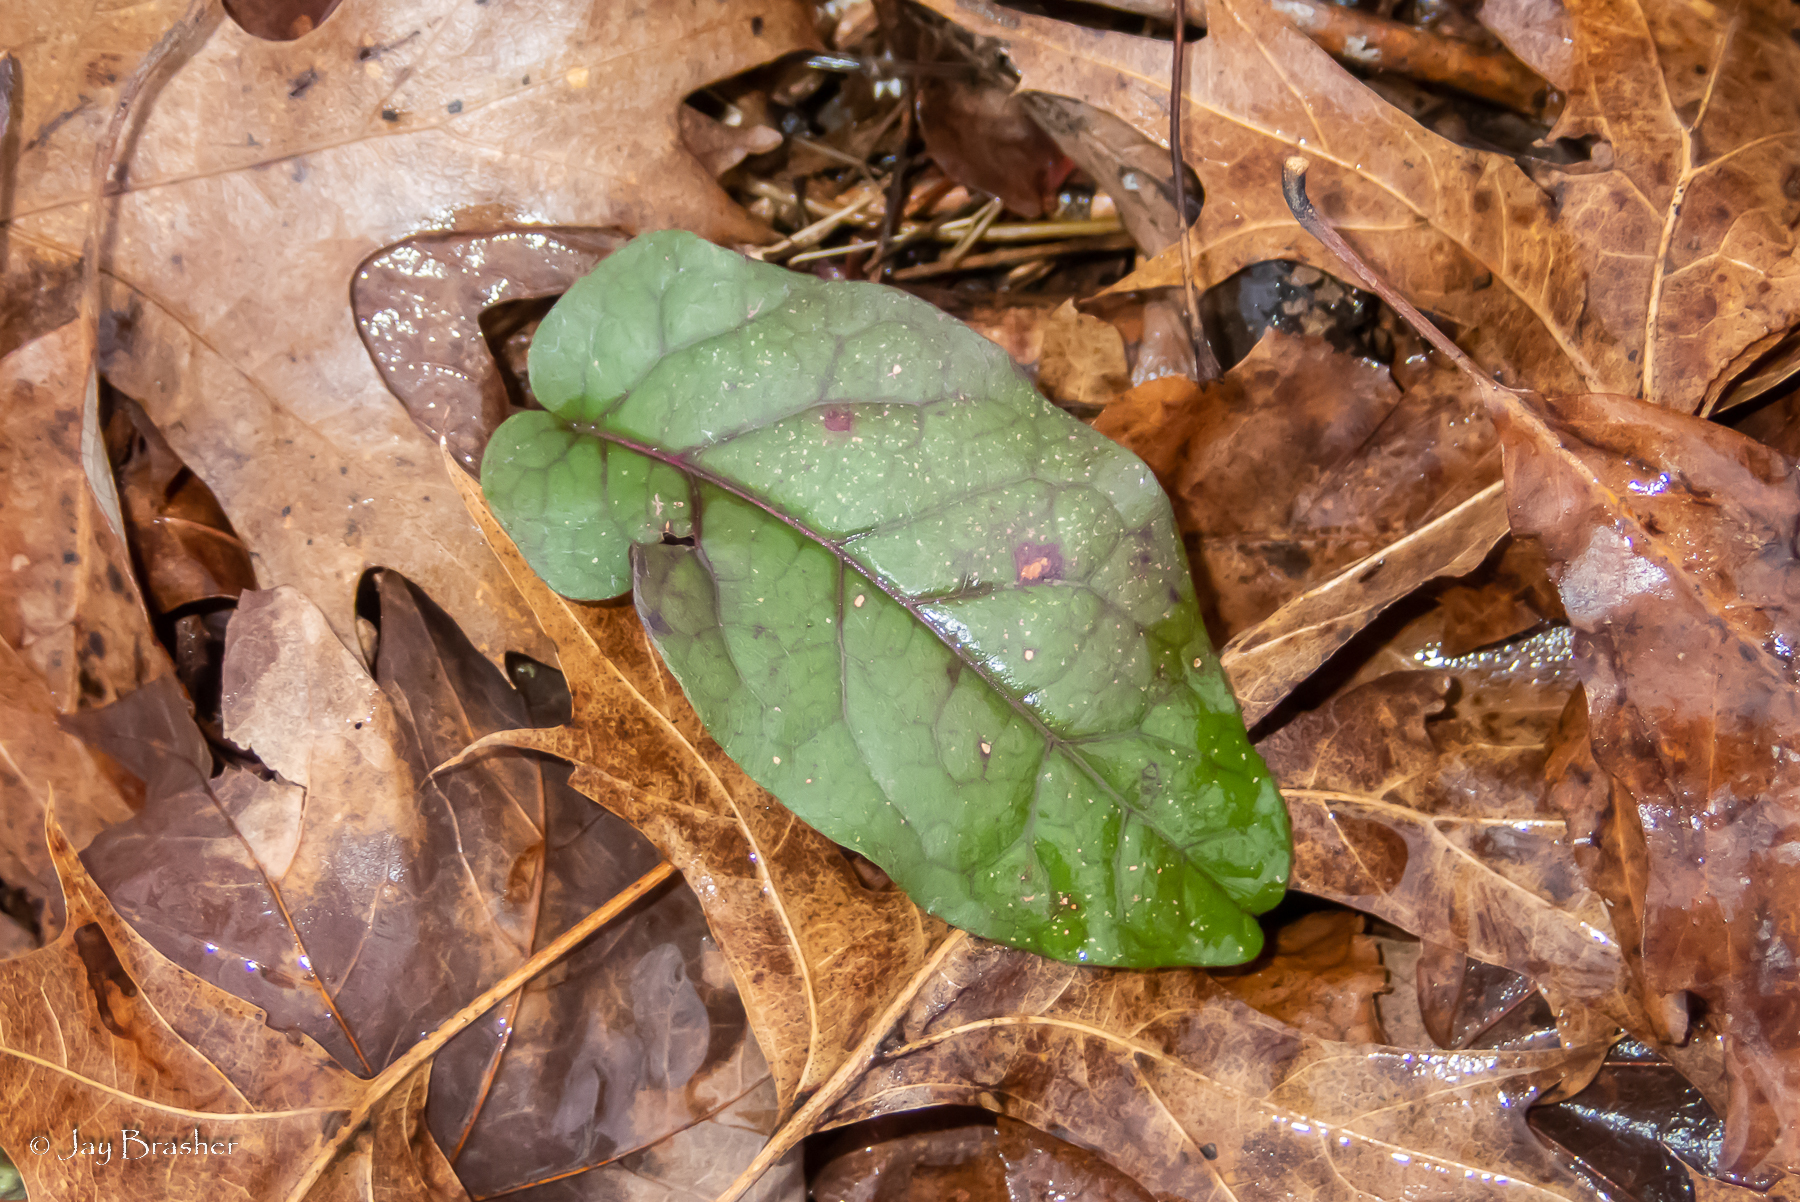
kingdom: Plantae
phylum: Tracheophyta
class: Magnoliopsida
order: Lamiales
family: Bignoniaceae
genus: Bignonia
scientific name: Bignonia capreolata
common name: Crossvine
